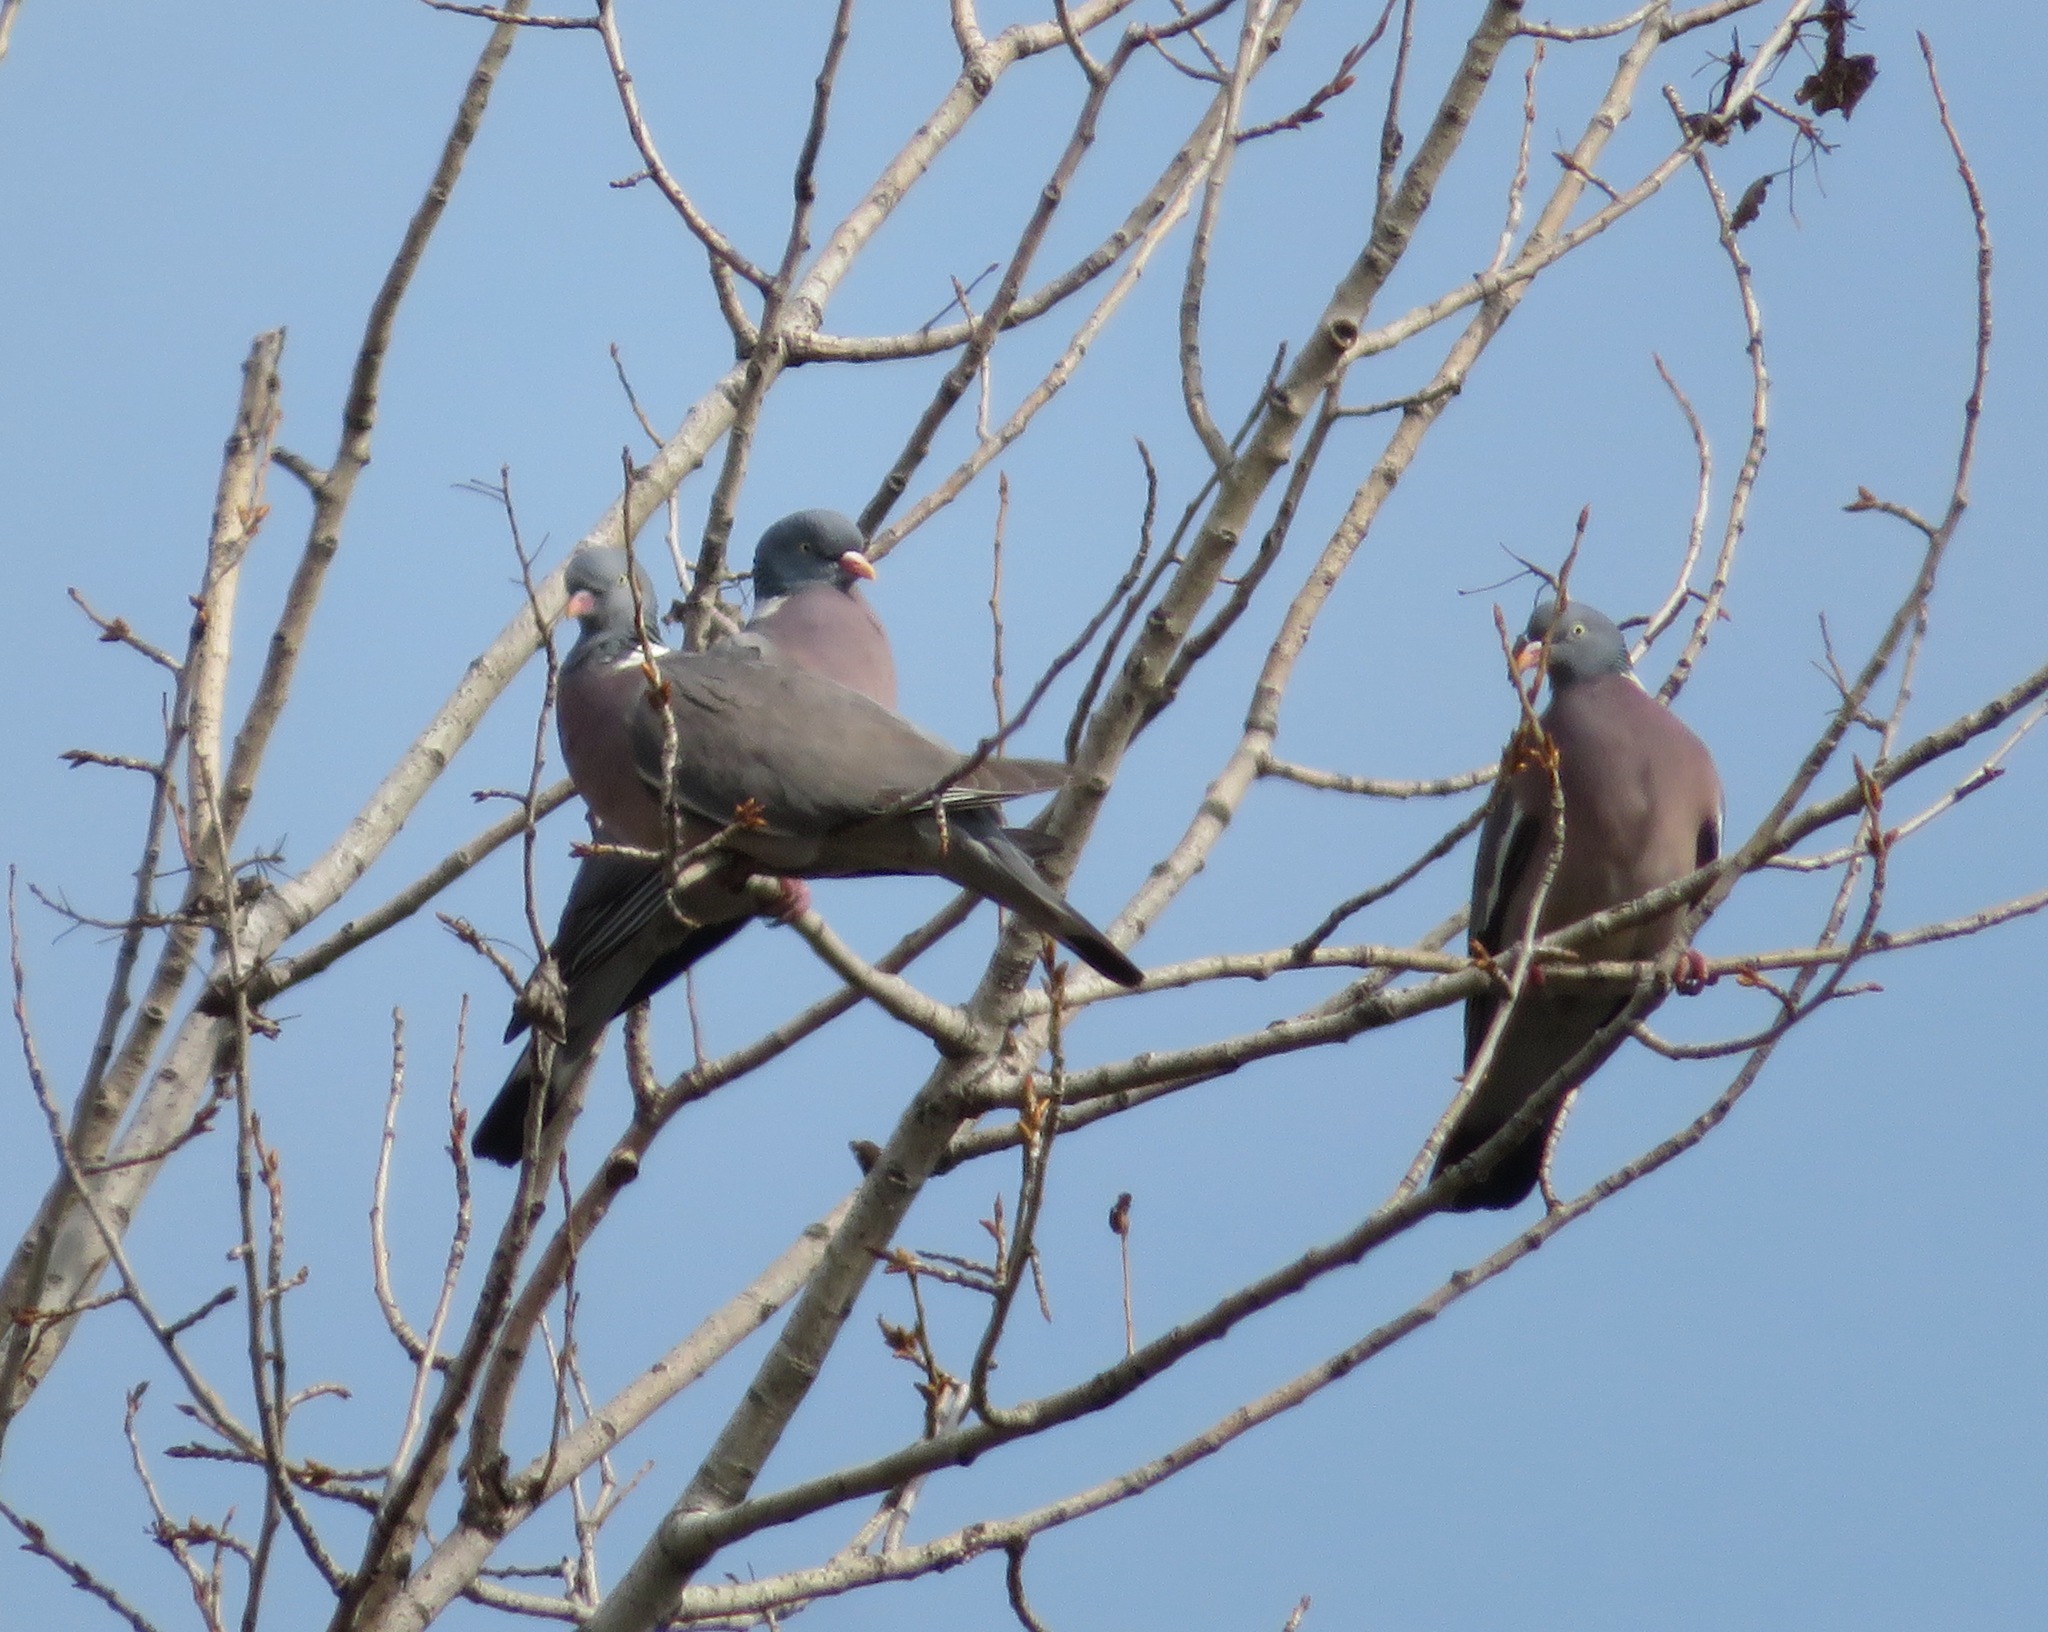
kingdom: Animalia
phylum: Chordata
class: Aves
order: Columbiformes
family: Columbidae
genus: Columba
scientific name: Columba palumbus
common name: Common wood pigeon
